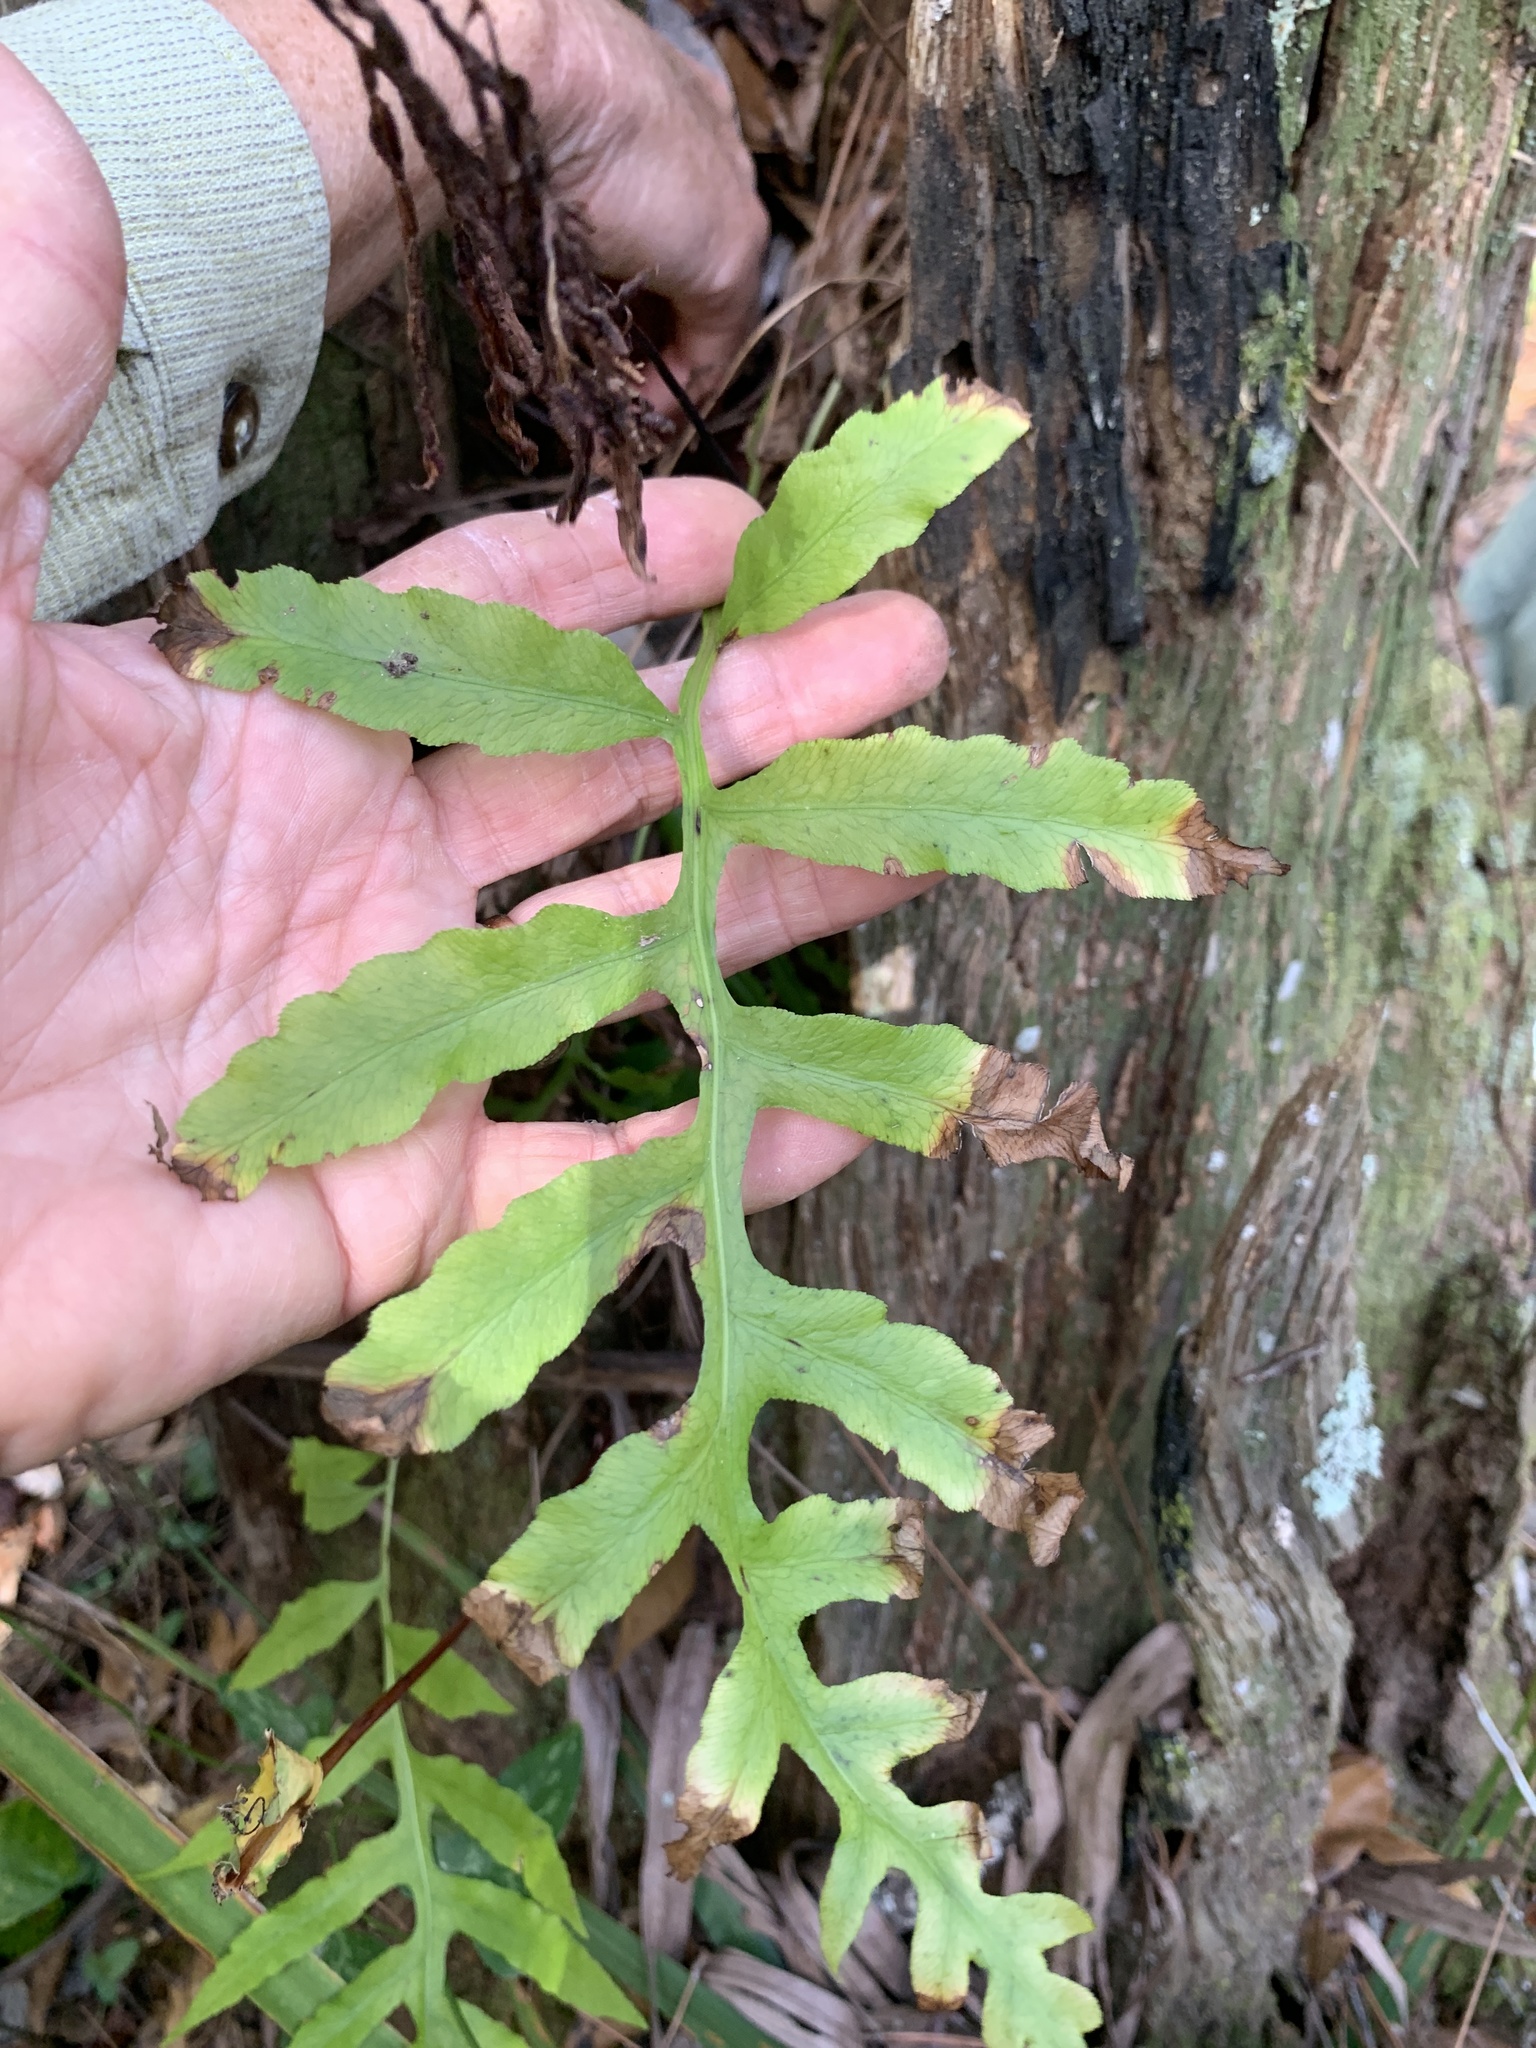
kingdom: Plantae
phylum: Tracheophyta
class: Polypodiopsida
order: Polypodiales
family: Polypodiaceae
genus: Phlebodium
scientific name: Phlebodium aureum
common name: Gold-foot fern
